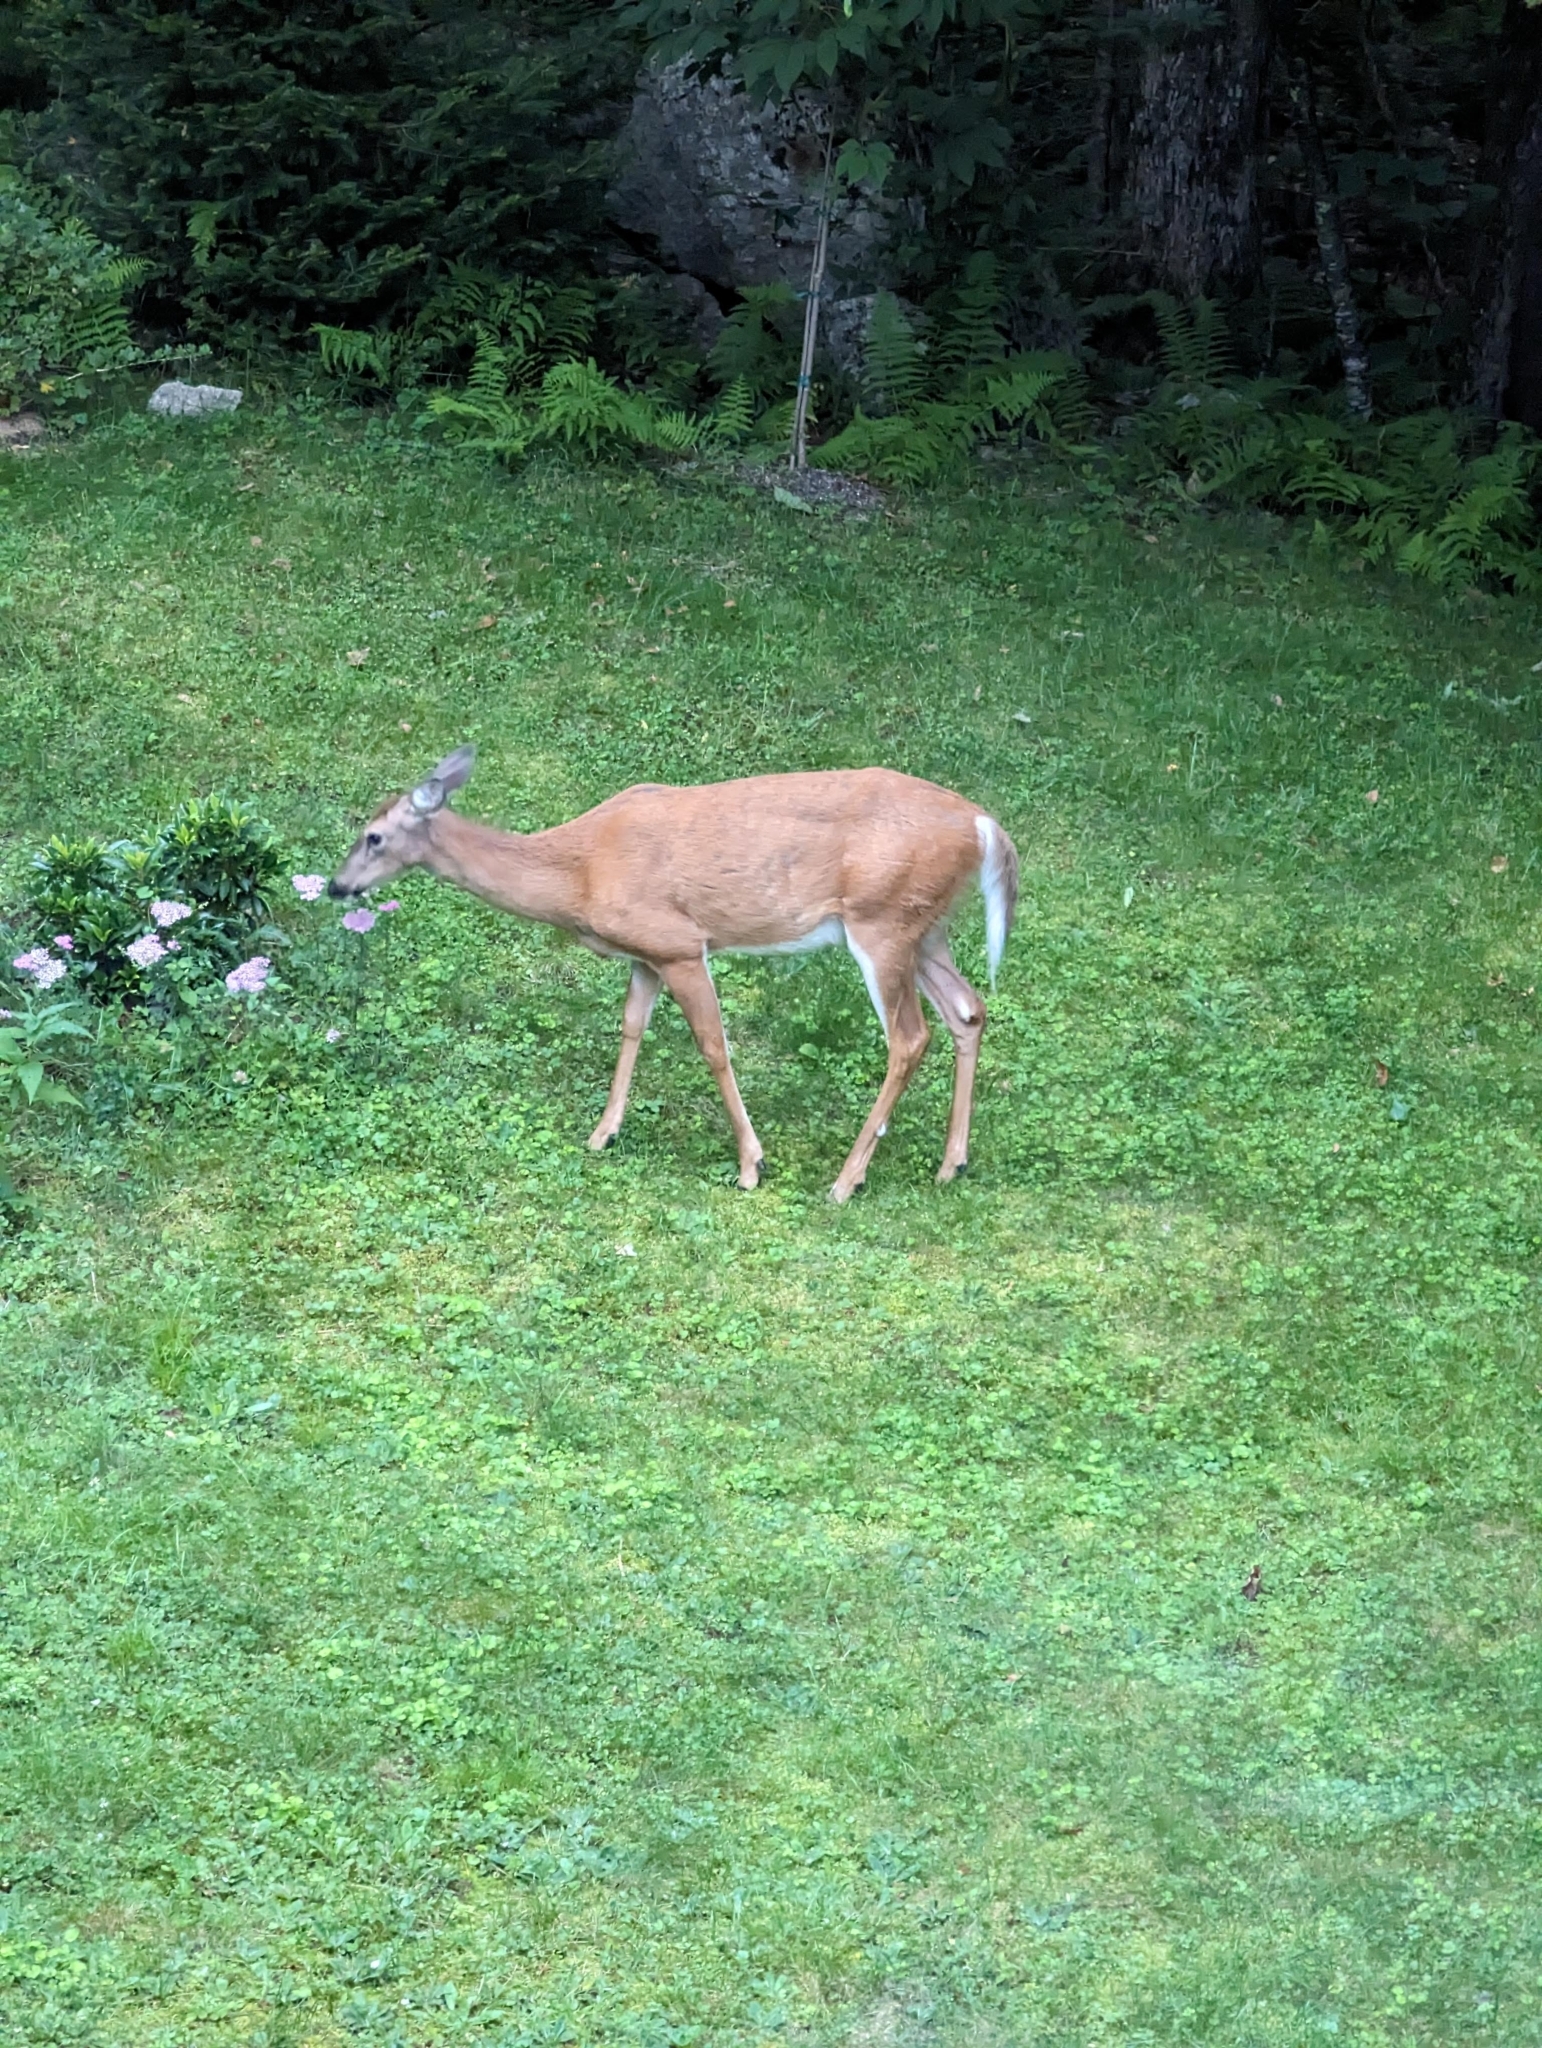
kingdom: Animalia
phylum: Chordata
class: Mammalia
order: Artiodactyla
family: Cervidae
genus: Odocoileus
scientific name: Odocoileus virginianus
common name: White-tailed deer
